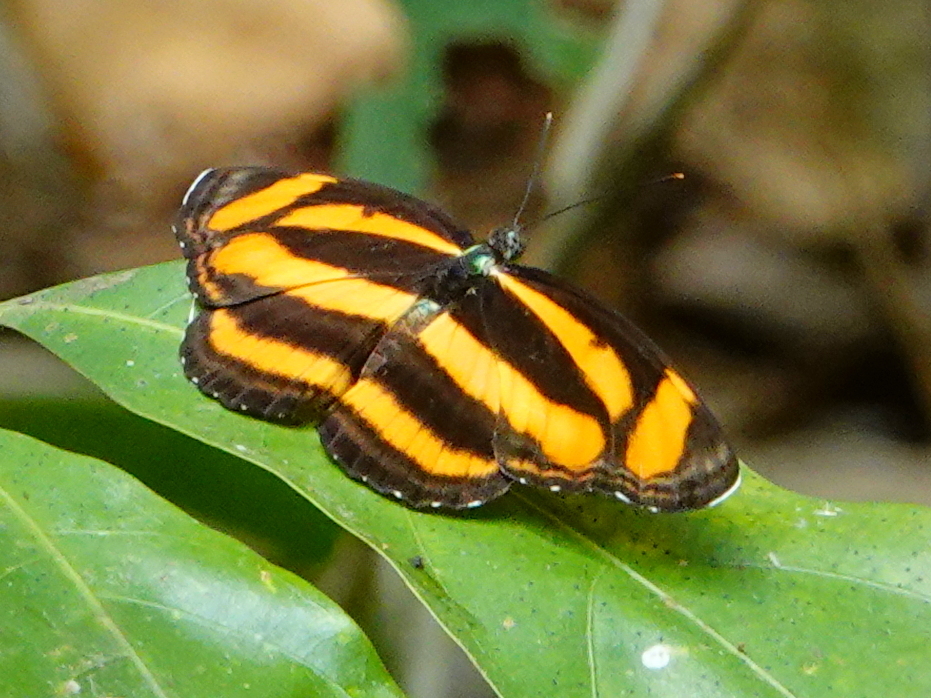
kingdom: Animalia
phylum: Arthropoda
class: Insecta
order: Lepidoptera
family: Nymphalidae
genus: Pantoporia
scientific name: Pantoporia hordonia
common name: Common lascar
